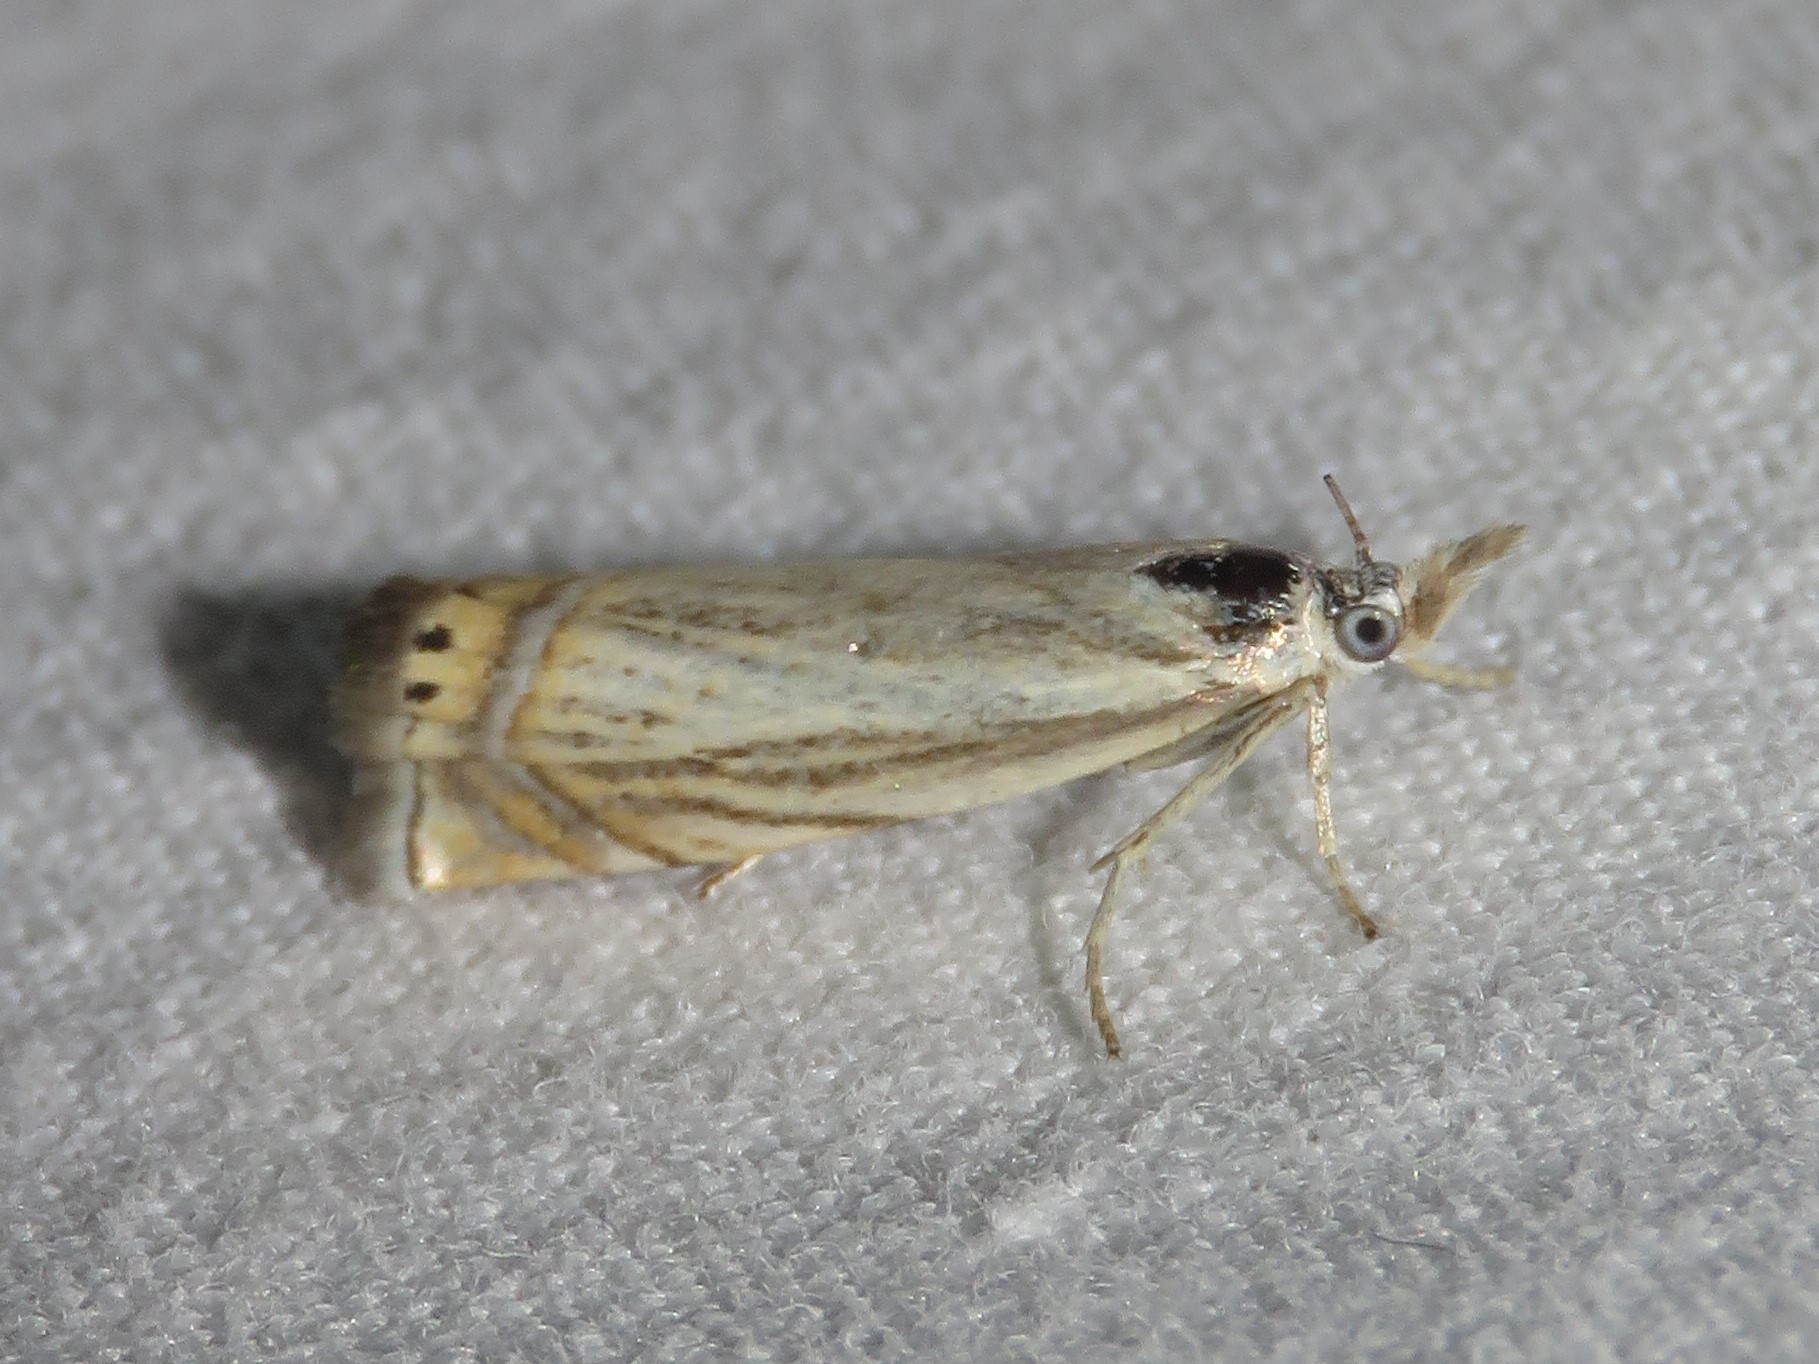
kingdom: Animalia
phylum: Arthropoda
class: Insecta
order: Lepidoptera
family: Crambidae
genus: Chrysoteuchia
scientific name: Chrysoteuchia topiarius
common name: Topiary grass-veneer
